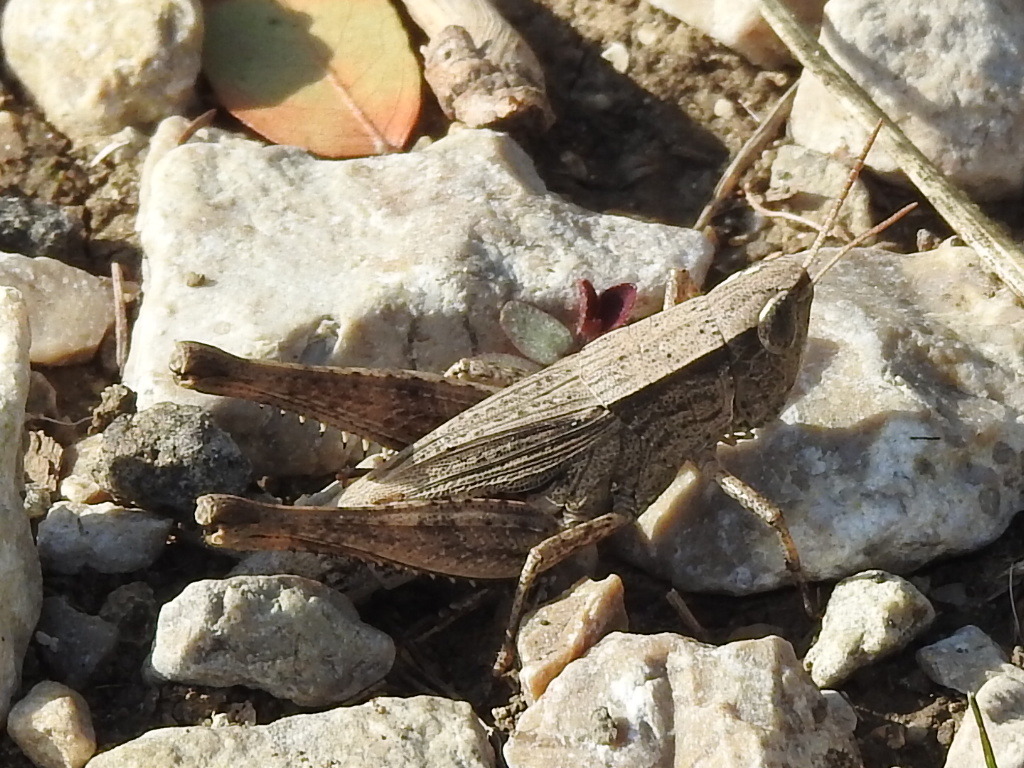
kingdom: Animalia
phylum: Arthropoda
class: Insecta
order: Orthoptera
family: Acrididae
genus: Dichromorpha
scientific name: Dichromorpha viridis
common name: Short-winged green grasshopper
